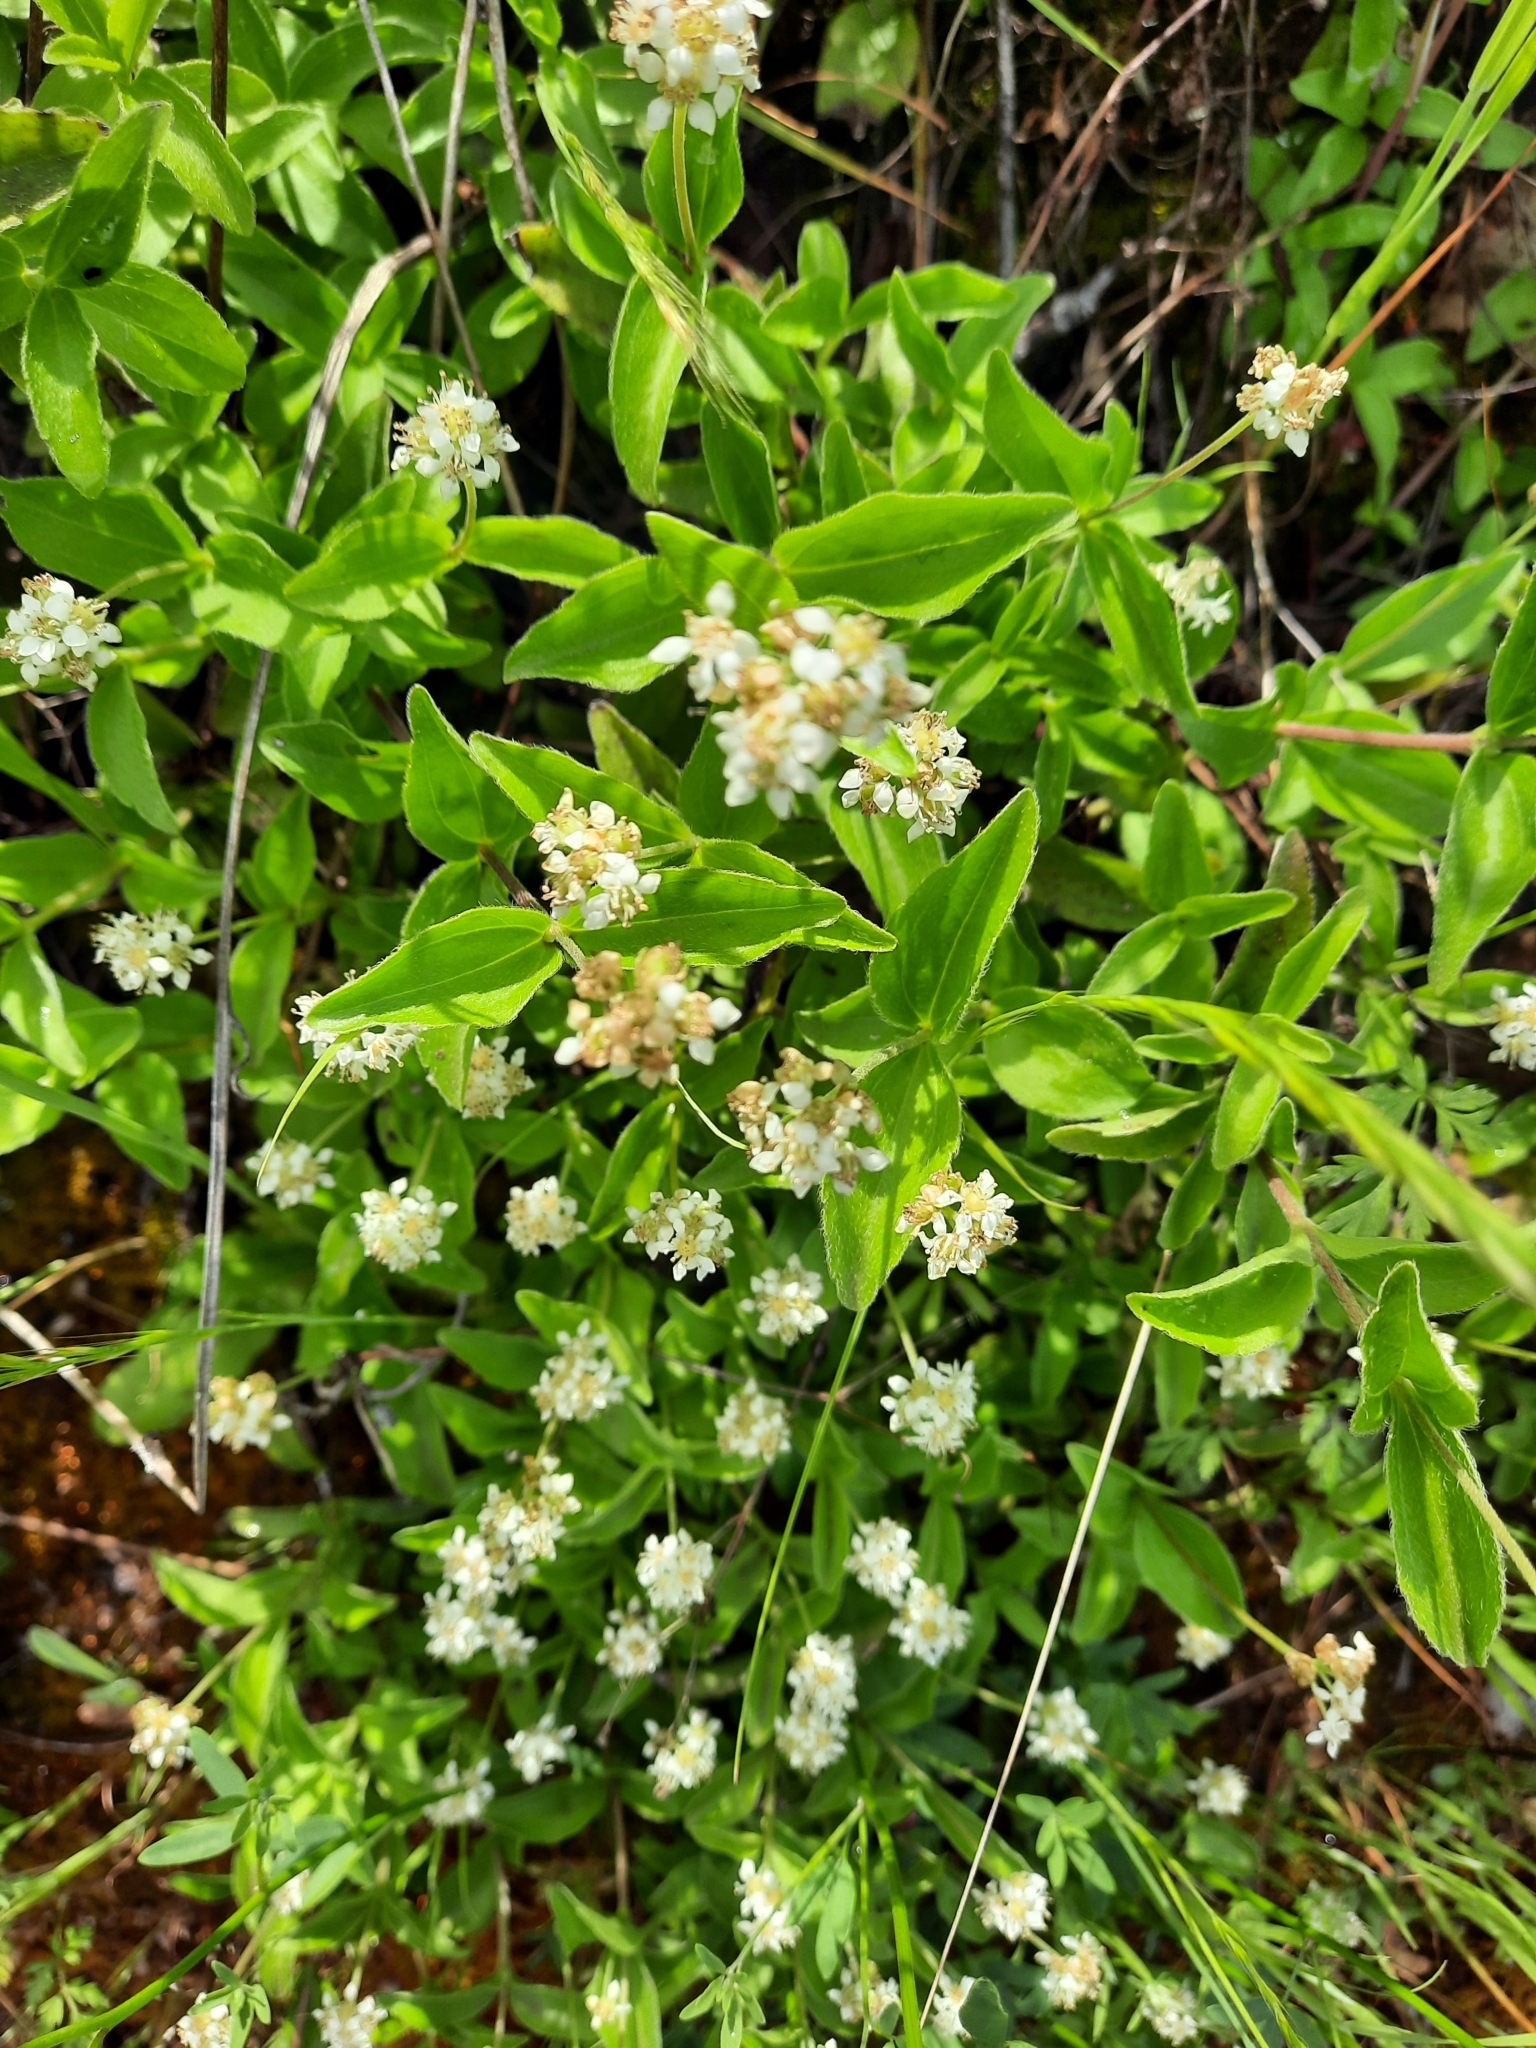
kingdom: Plantae
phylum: Tracheophyta
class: Magnoliopsida
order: Cornales
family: Hydrangeaceae
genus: Whipplea
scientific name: Whipplea modesta
